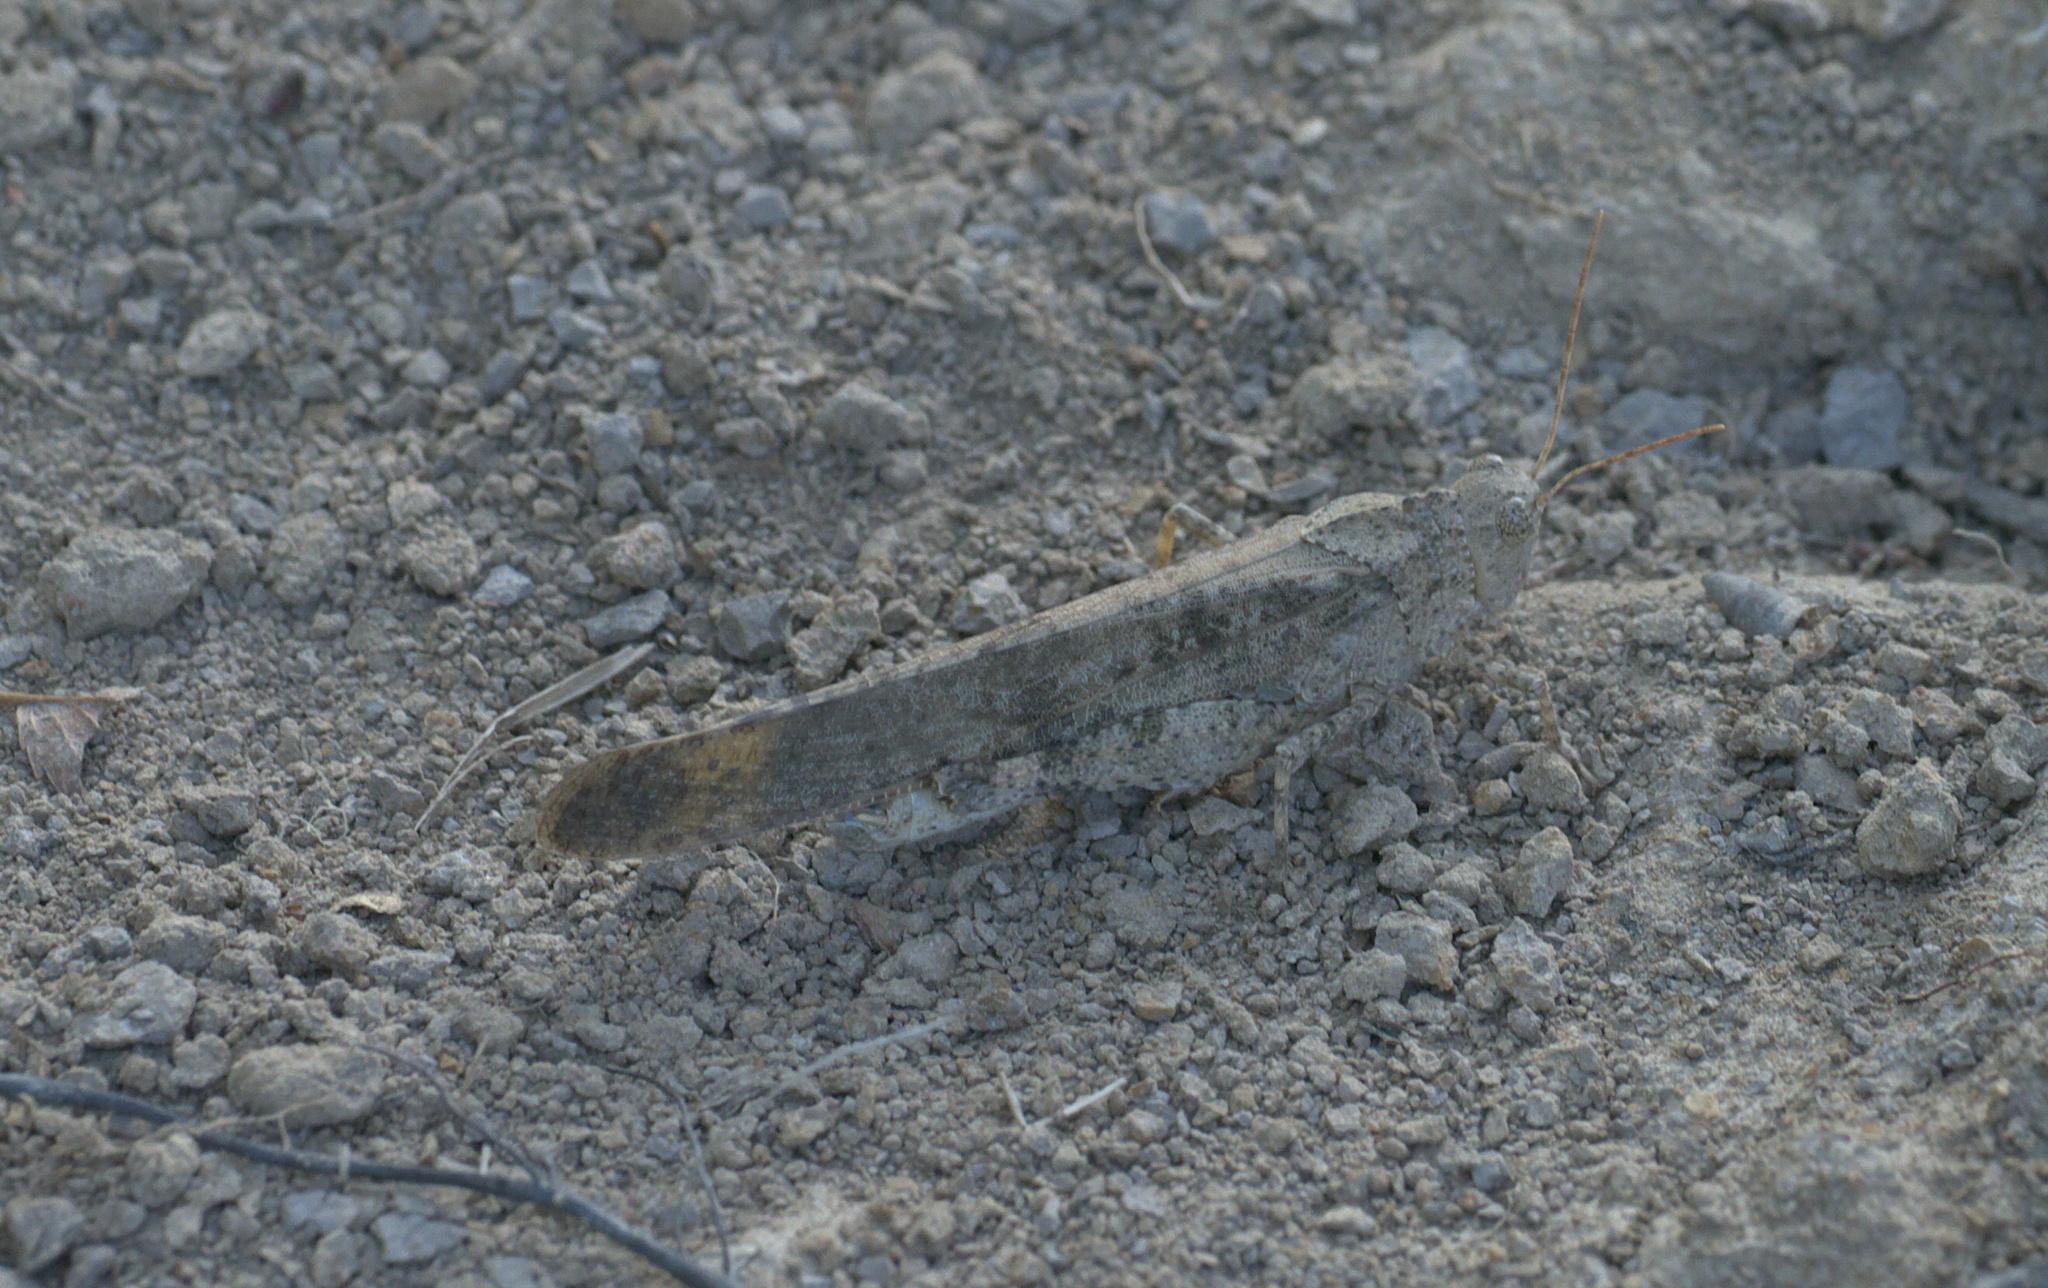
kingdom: Animalia
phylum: Arthropoda
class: Insecta
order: Orthoptera
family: Acrididae
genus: Dissosteira
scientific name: Dissosteira carolina
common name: Carolina grasshopper
